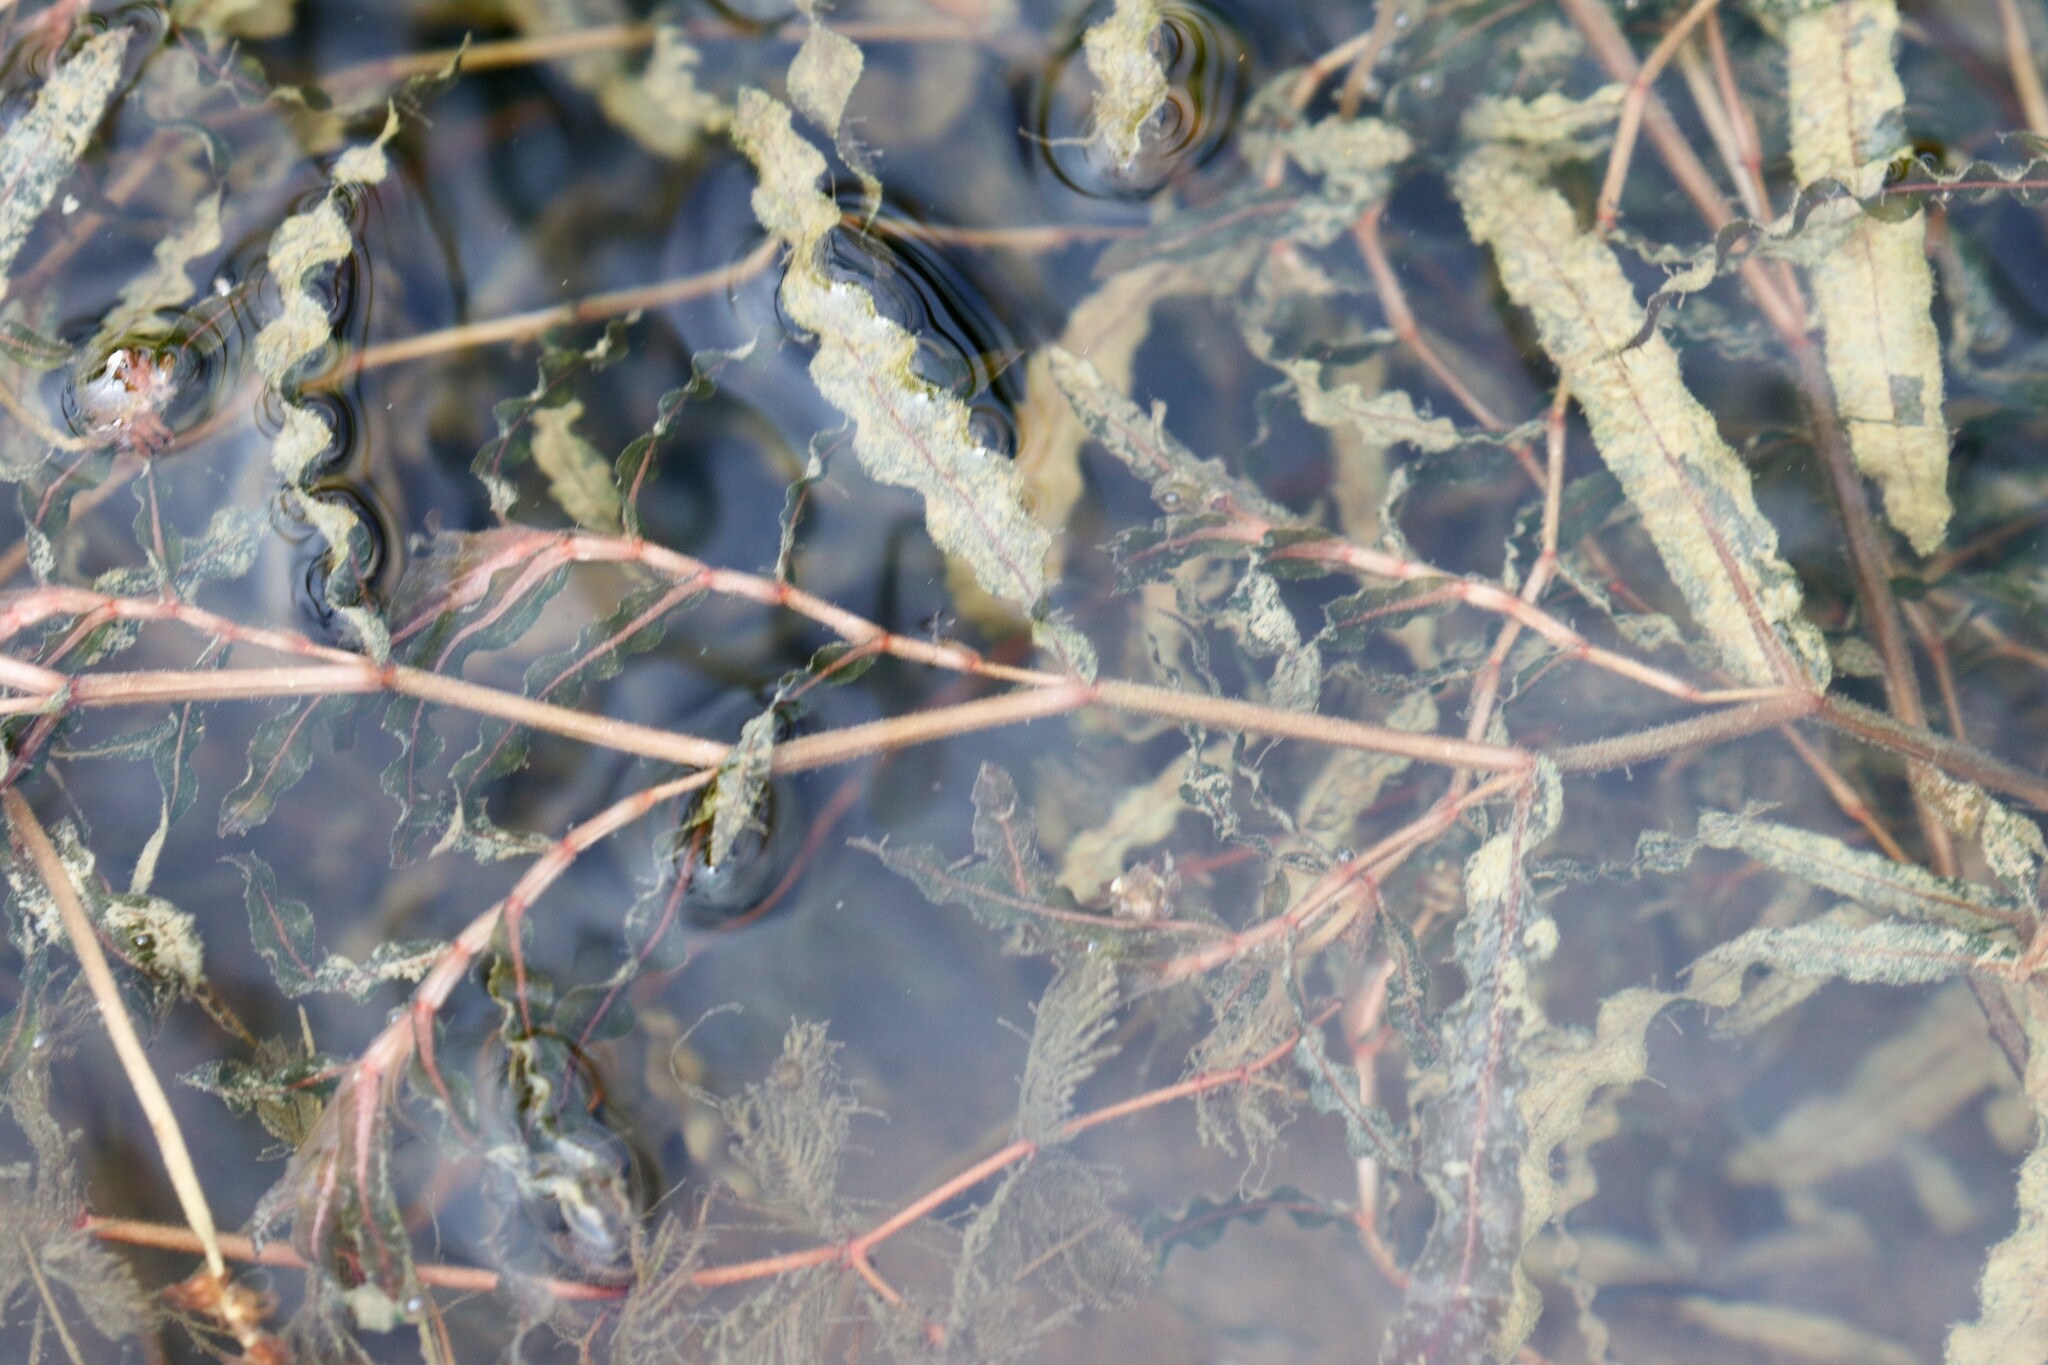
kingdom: Plantae
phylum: Tracheophyta
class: Liliopsida
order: Alismatales
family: Potamogetonaceae
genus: Potamogeton
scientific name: Potamogeton crispus
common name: Curled pondweed
